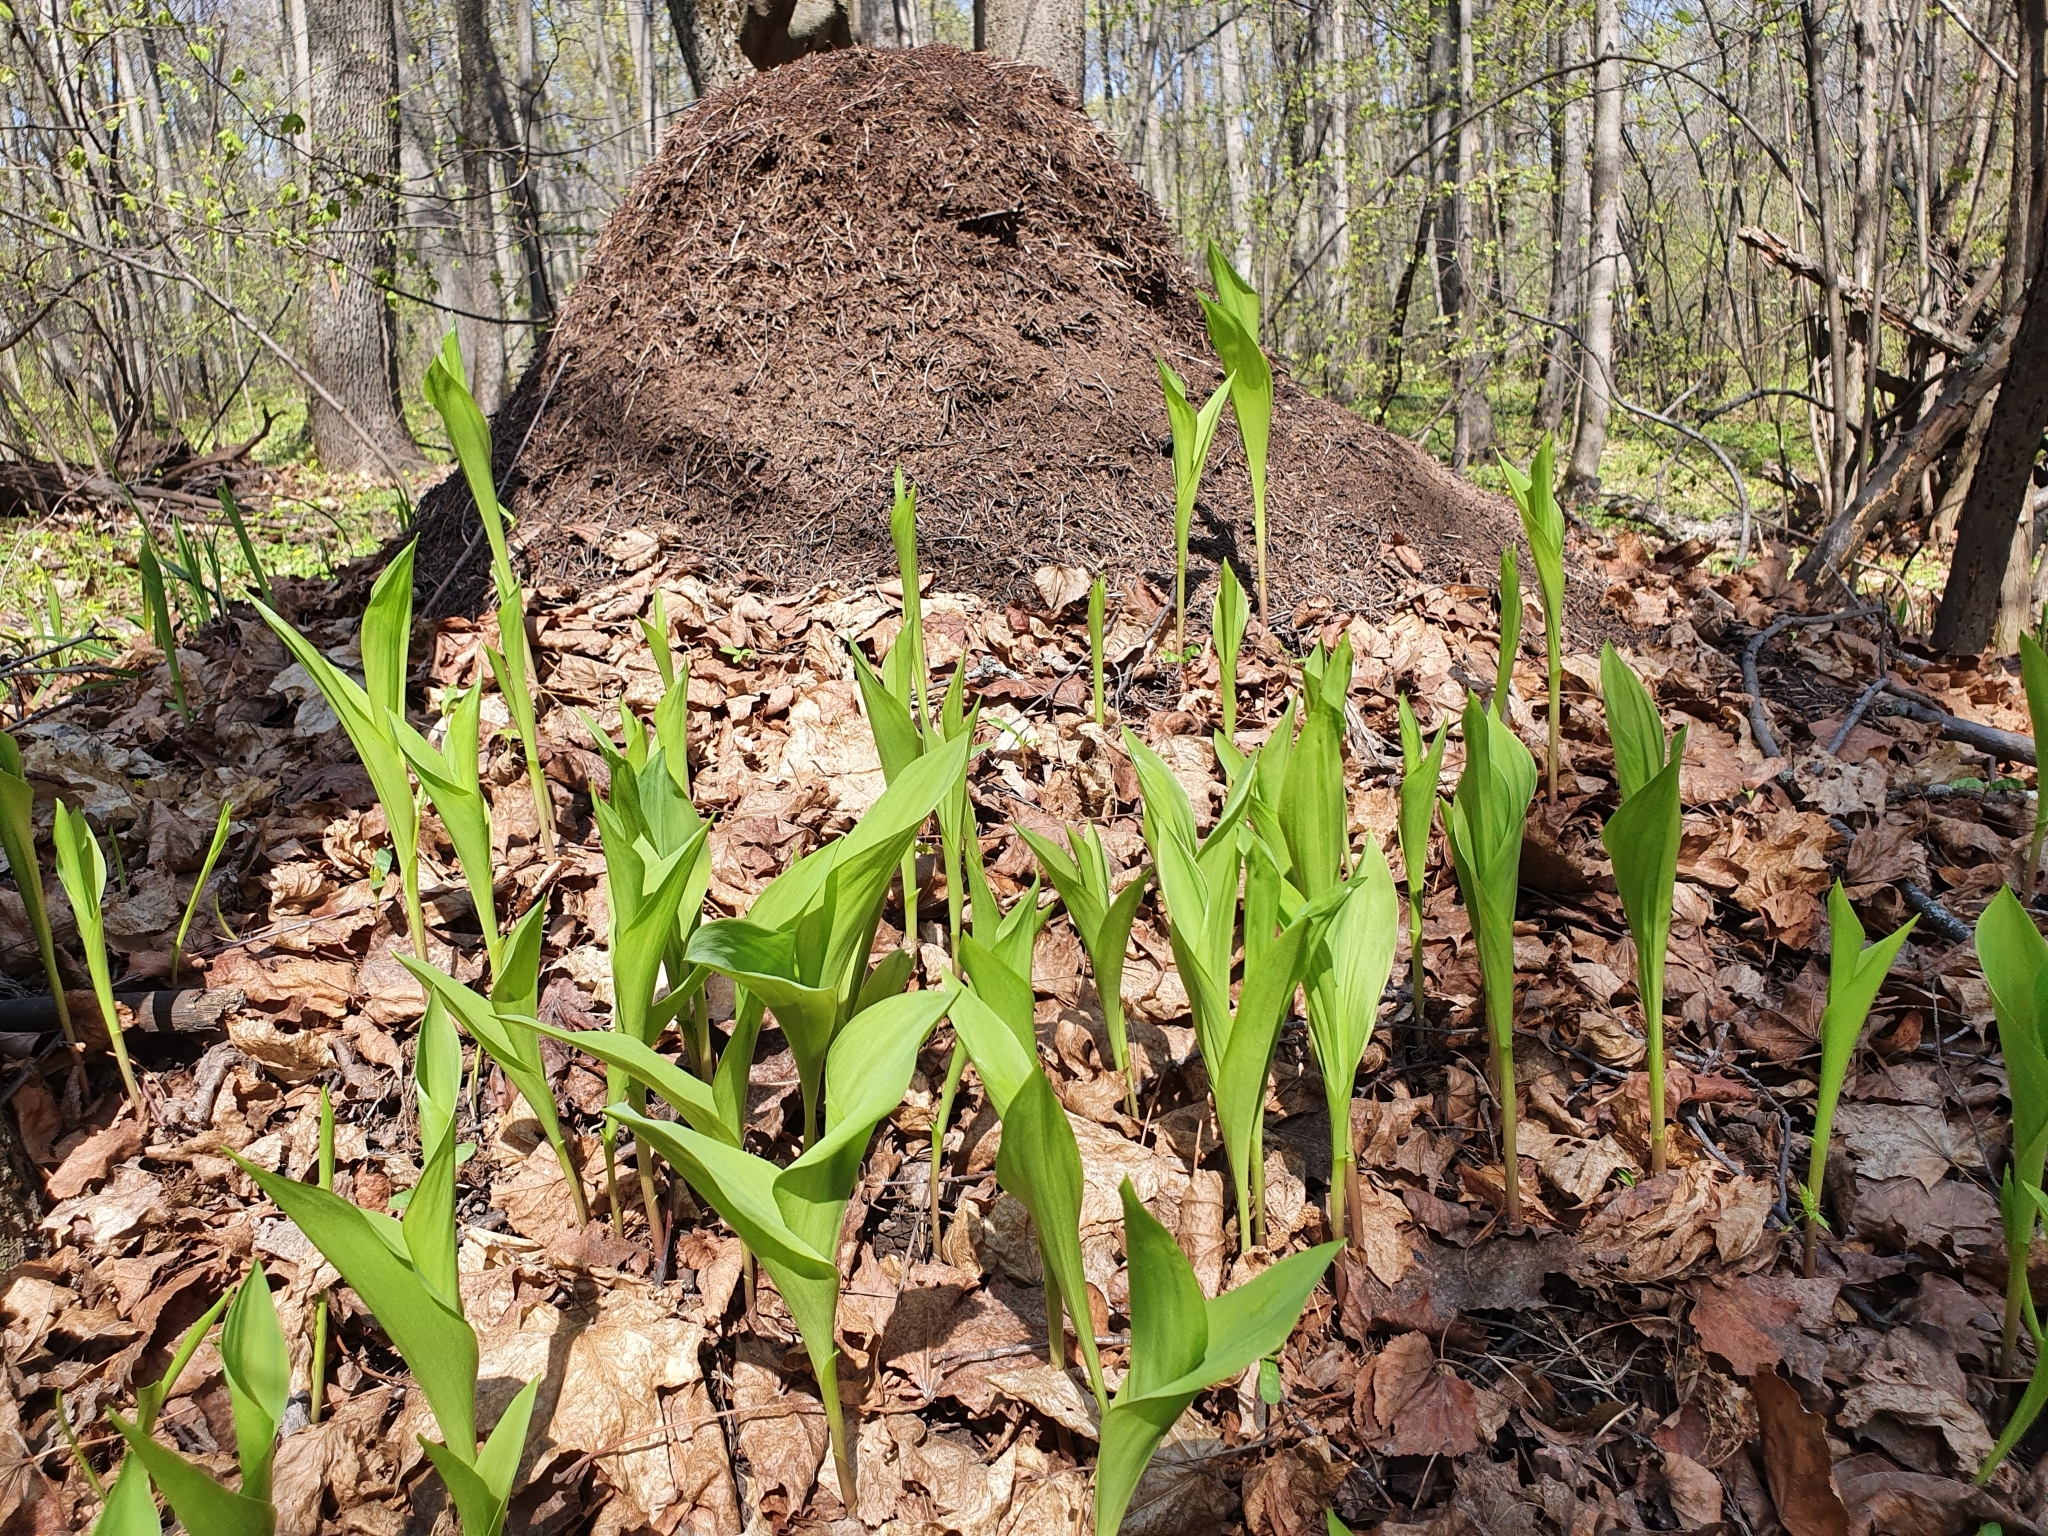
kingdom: Plantae
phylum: Tracheophyta
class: Liliopsida
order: Asparagales
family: Asparagaceae
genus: Convallaria
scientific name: Convallaria majalis
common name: Lily-of-the-valley
